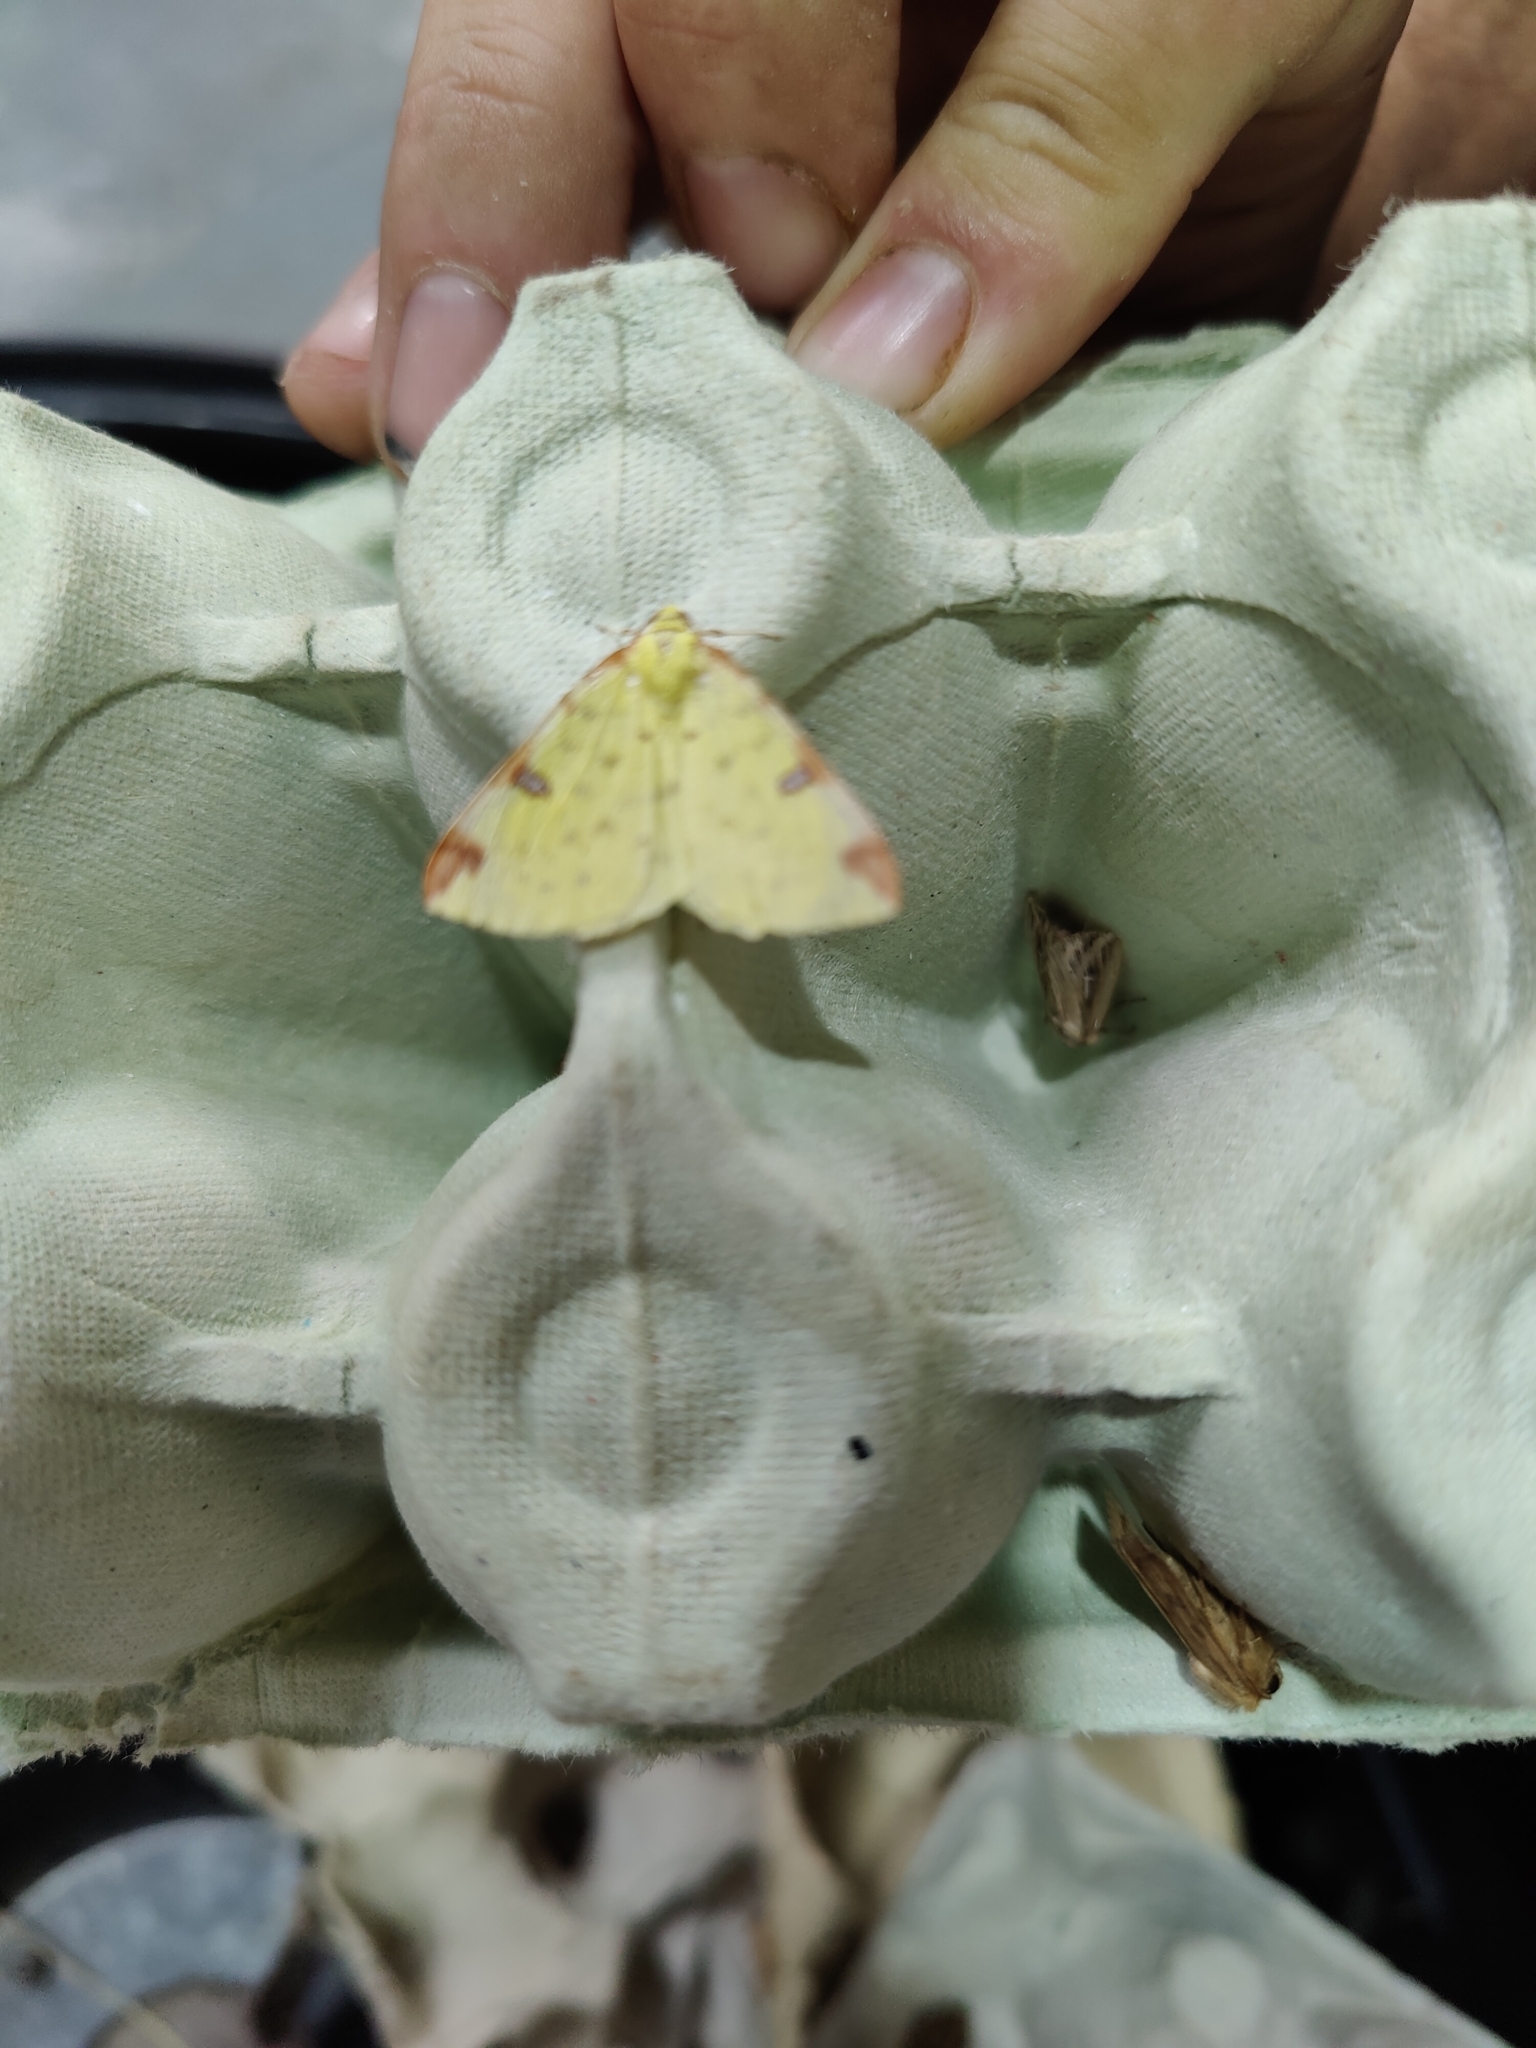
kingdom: Animalia
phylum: Arthropoda
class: Insecta
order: Lepidoptera
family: Geometridae
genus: Opisthograptis
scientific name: Opisthograptis luteolata
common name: Brimstone moth
